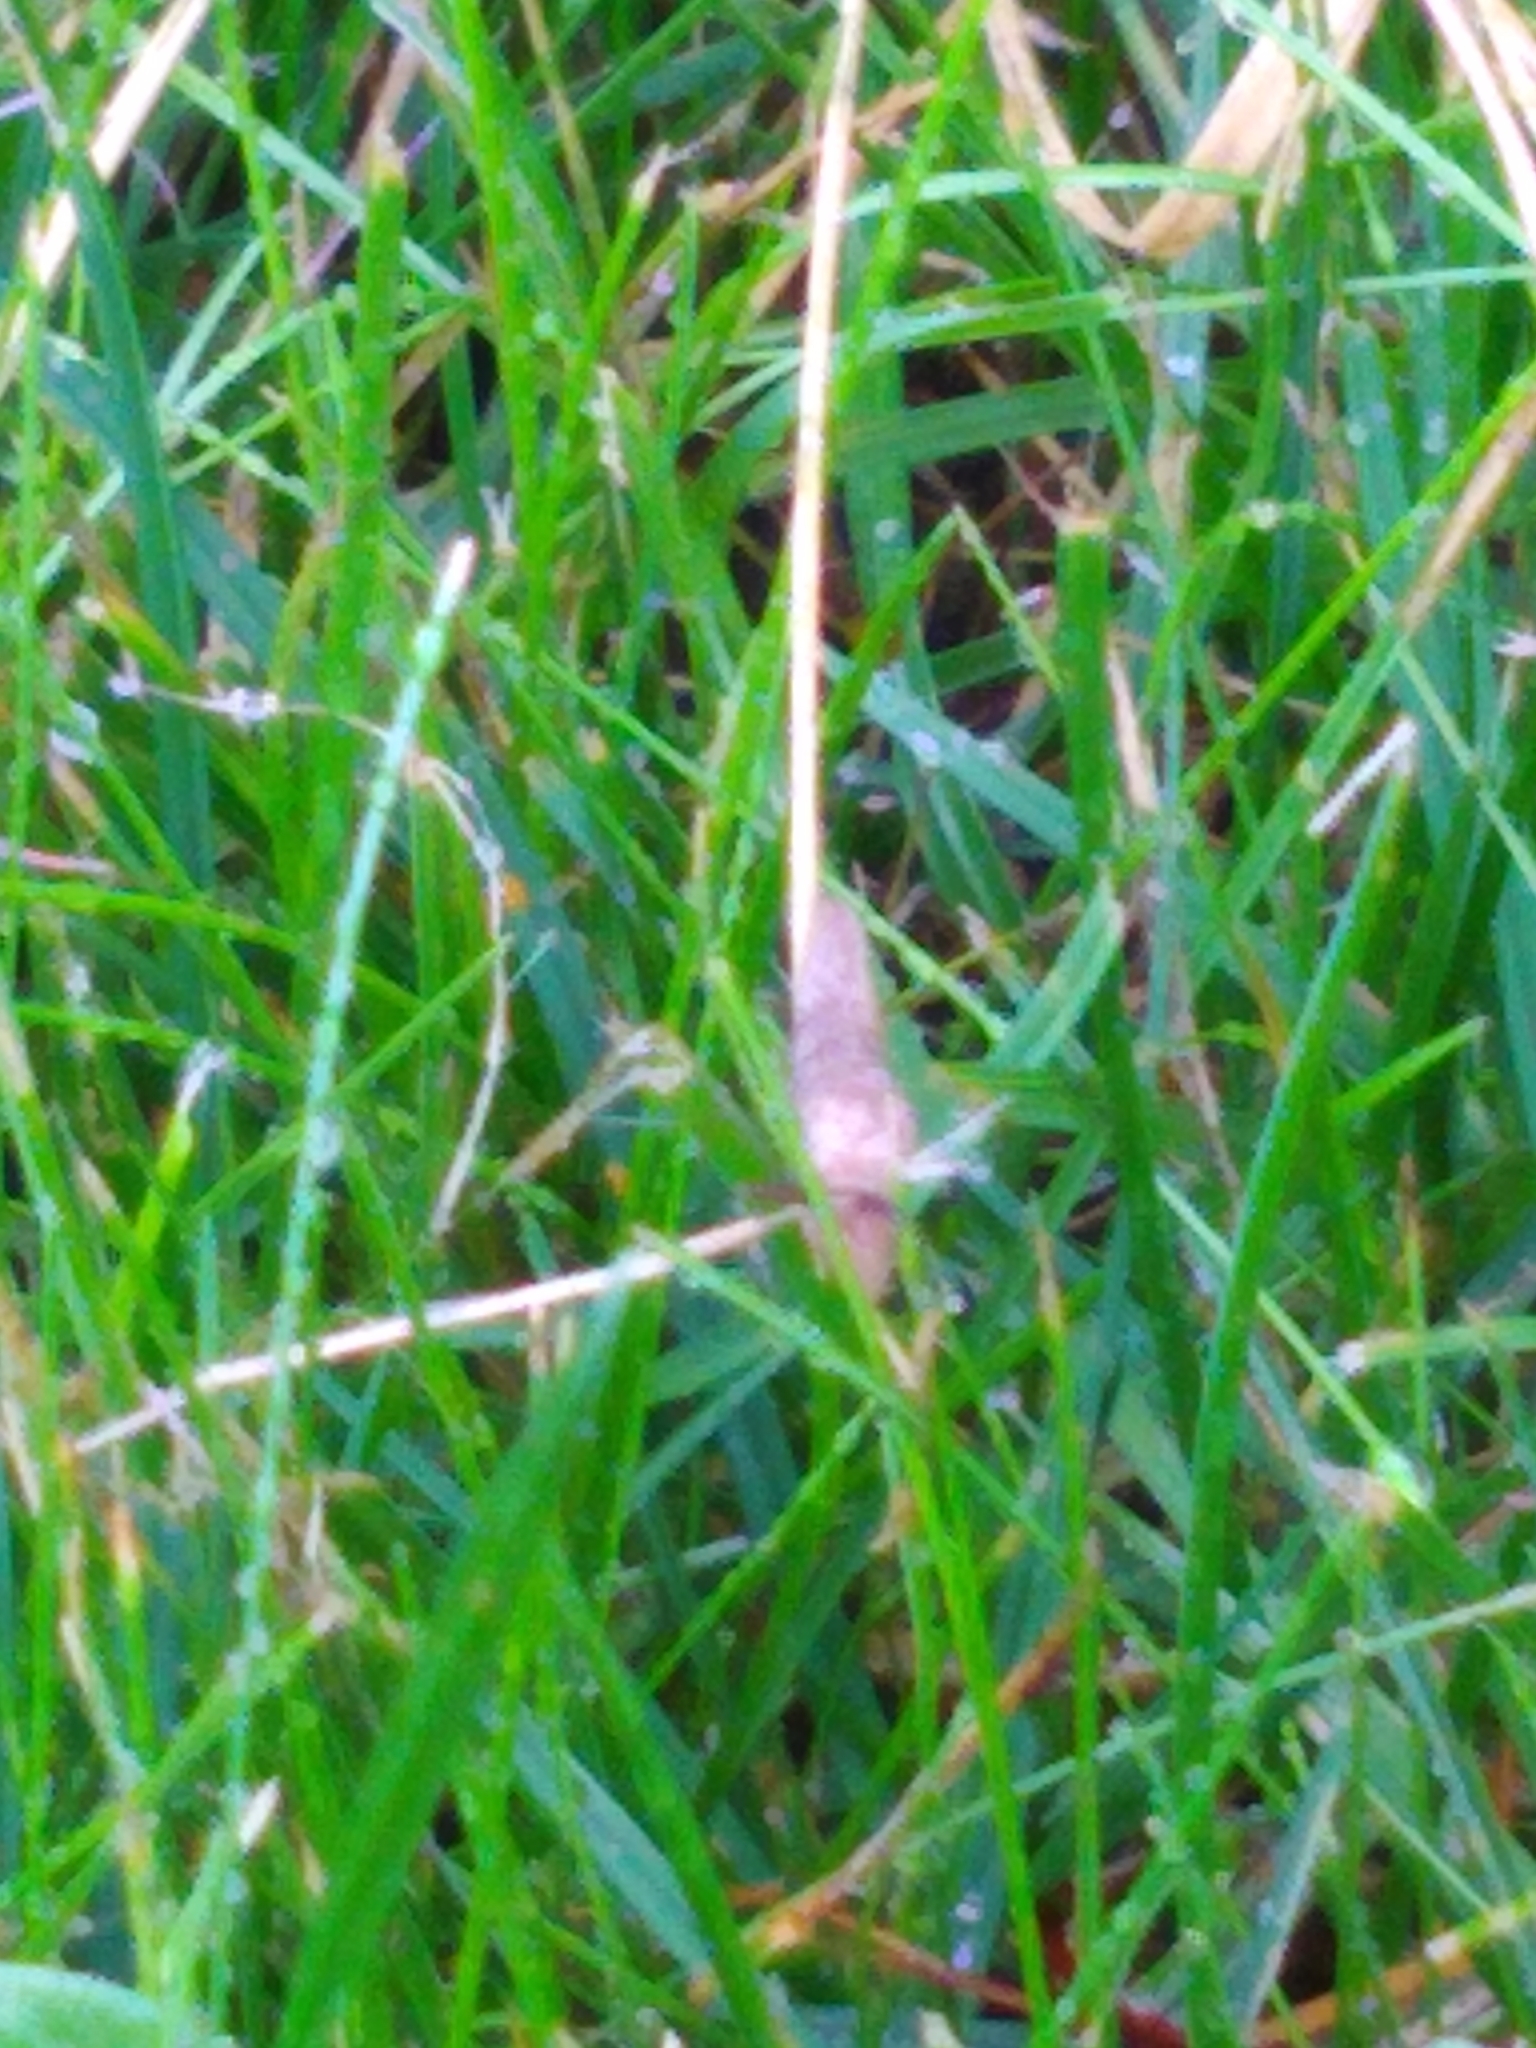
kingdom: Animalia
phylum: Mollusca
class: Gastropoda
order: Stylommatophora
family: Agriolimacidae
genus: Deroceras
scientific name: Deroceras reticulatum
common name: Gray field slug
